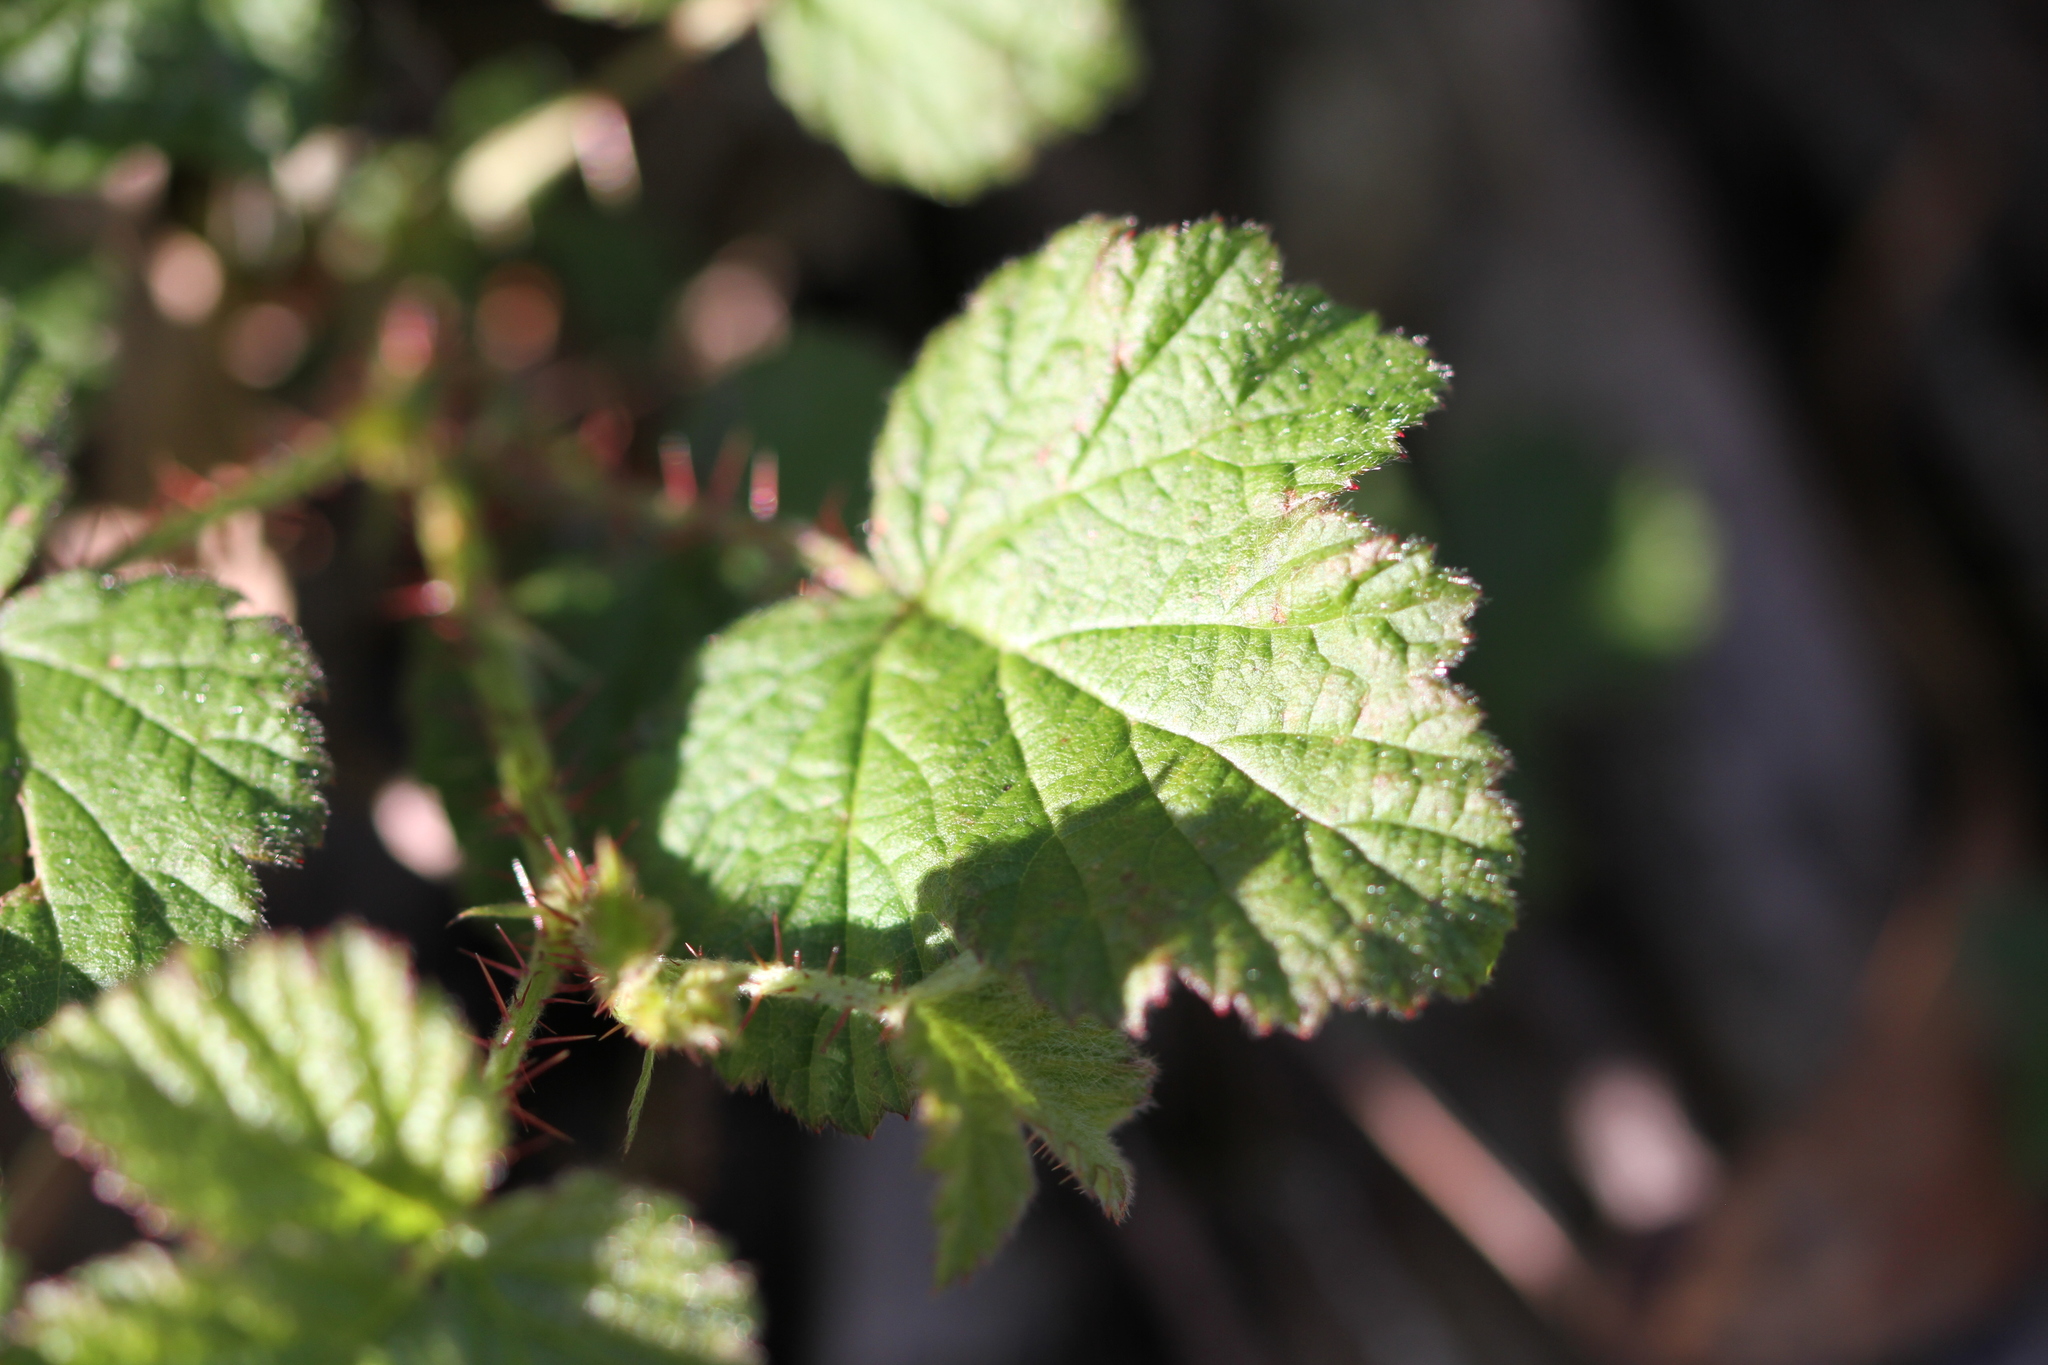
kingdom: Plantae
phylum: Tracheophyta
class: Magnoliopsida
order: Rosales
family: Rosaceae
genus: Rubus
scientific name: Rubus ursinus
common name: Pacific blackberry
